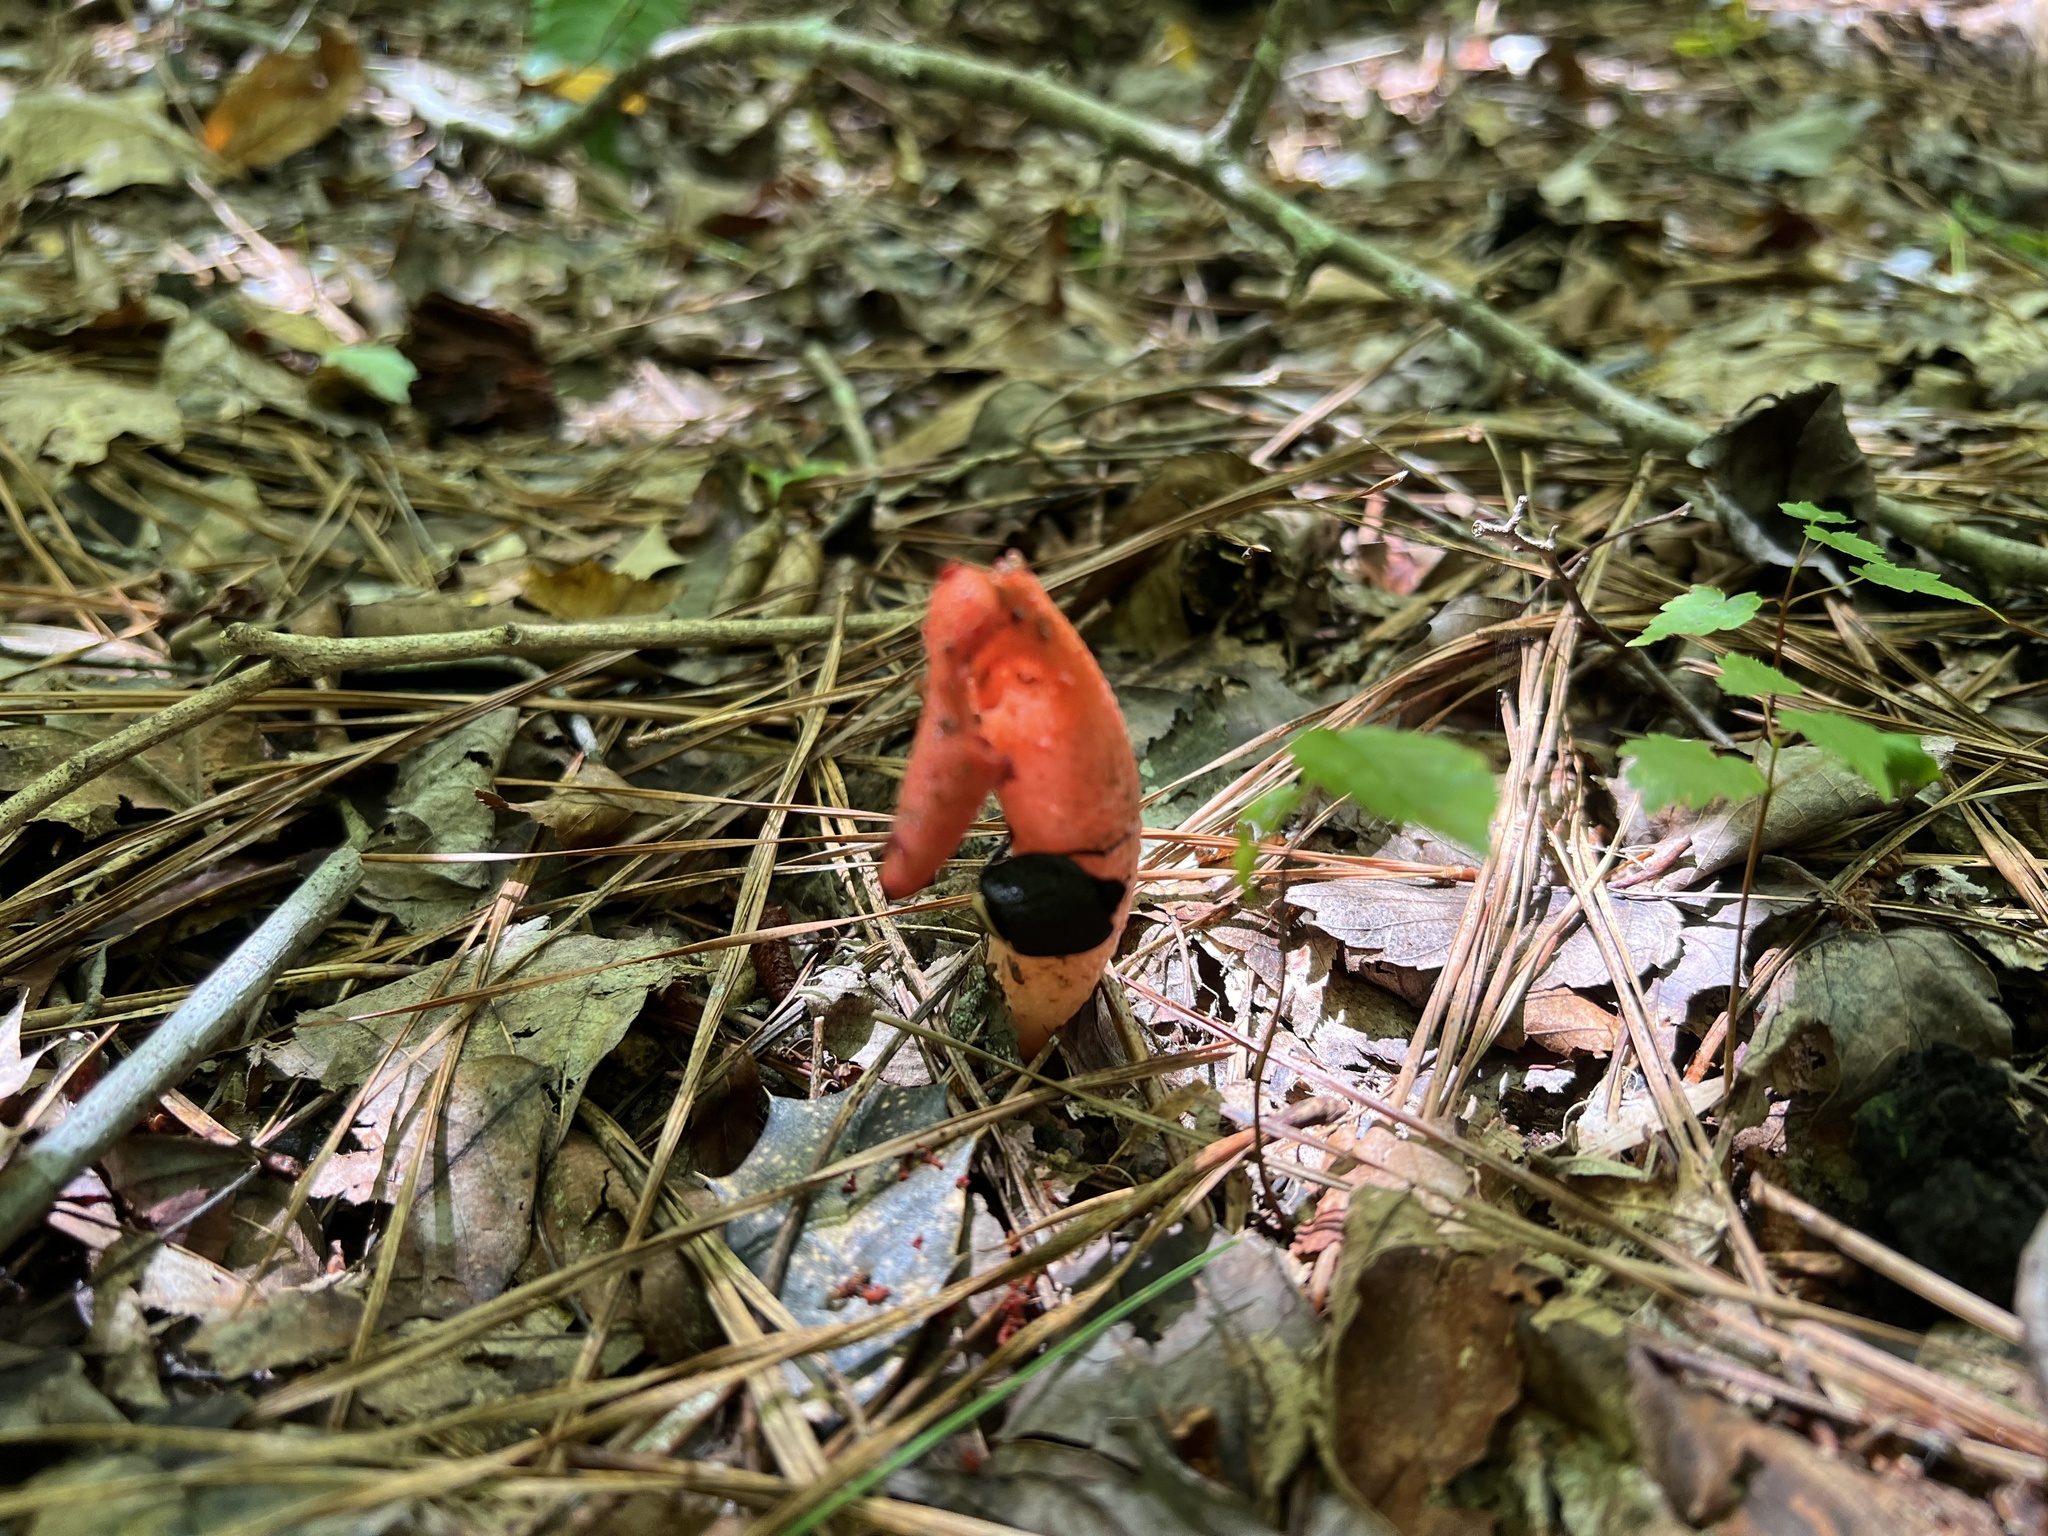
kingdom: Animalia
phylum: Arthropoda
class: Insecta
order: Coleoptera
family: Staphylinidae
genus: Necrophila
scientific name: Necrophila americana
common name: American carrion beetle
